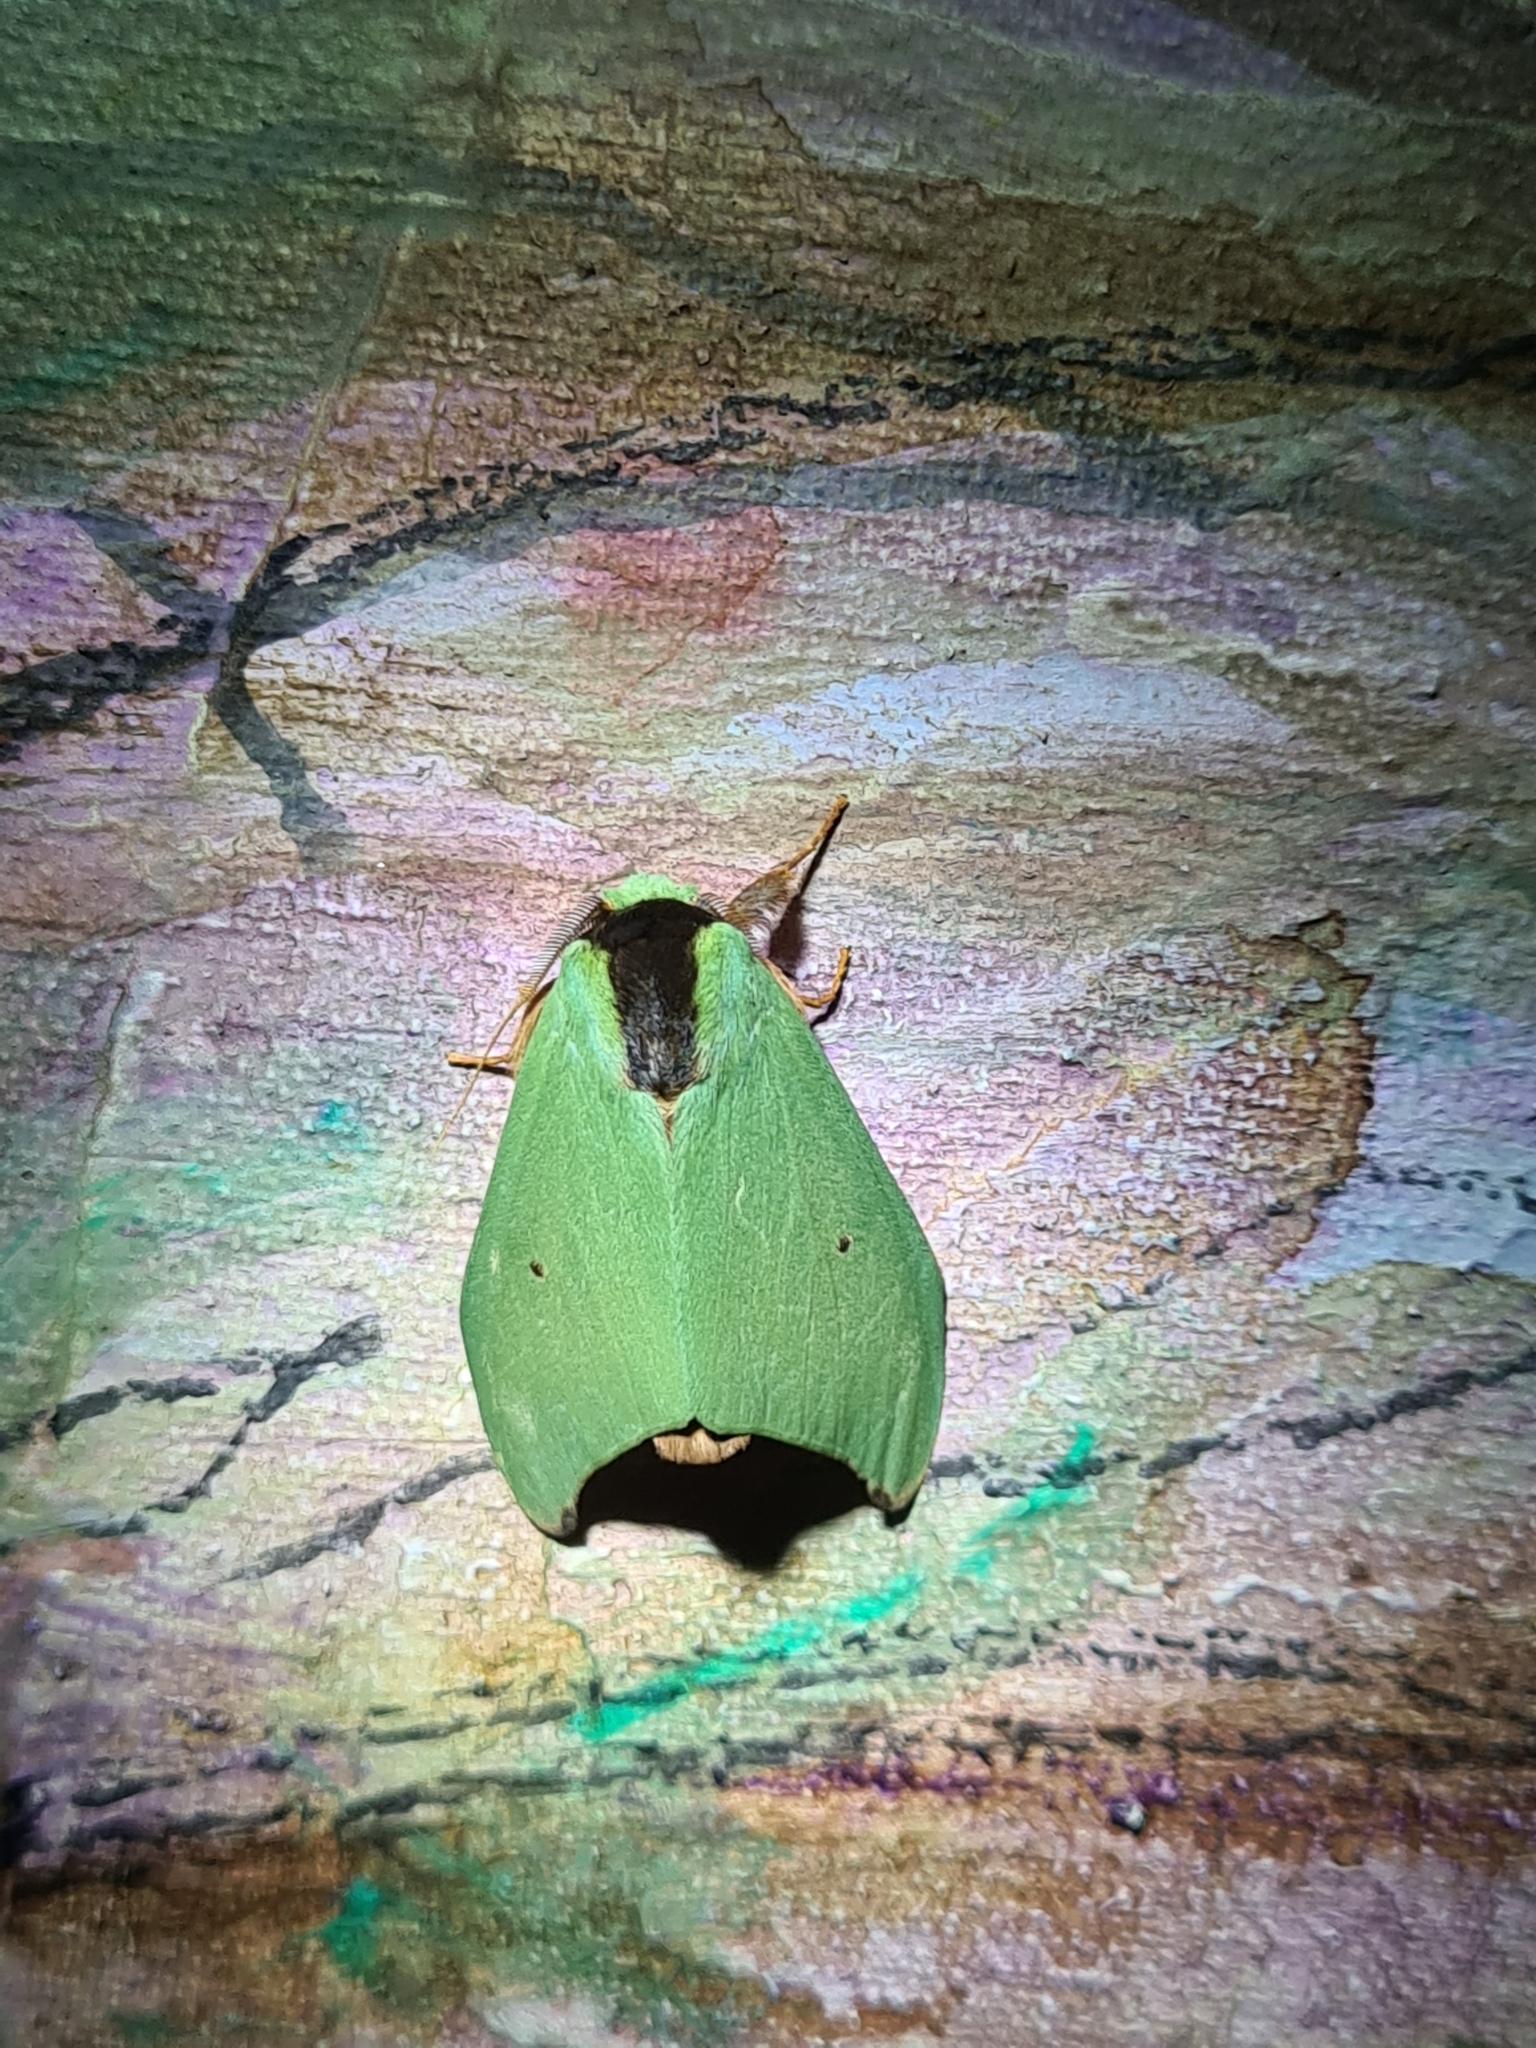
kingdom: Animalia
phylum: Arthropoda
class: Insecta
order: Lepidoptera
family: Notodontidae
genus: Rosema
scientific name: Rosema zelica
